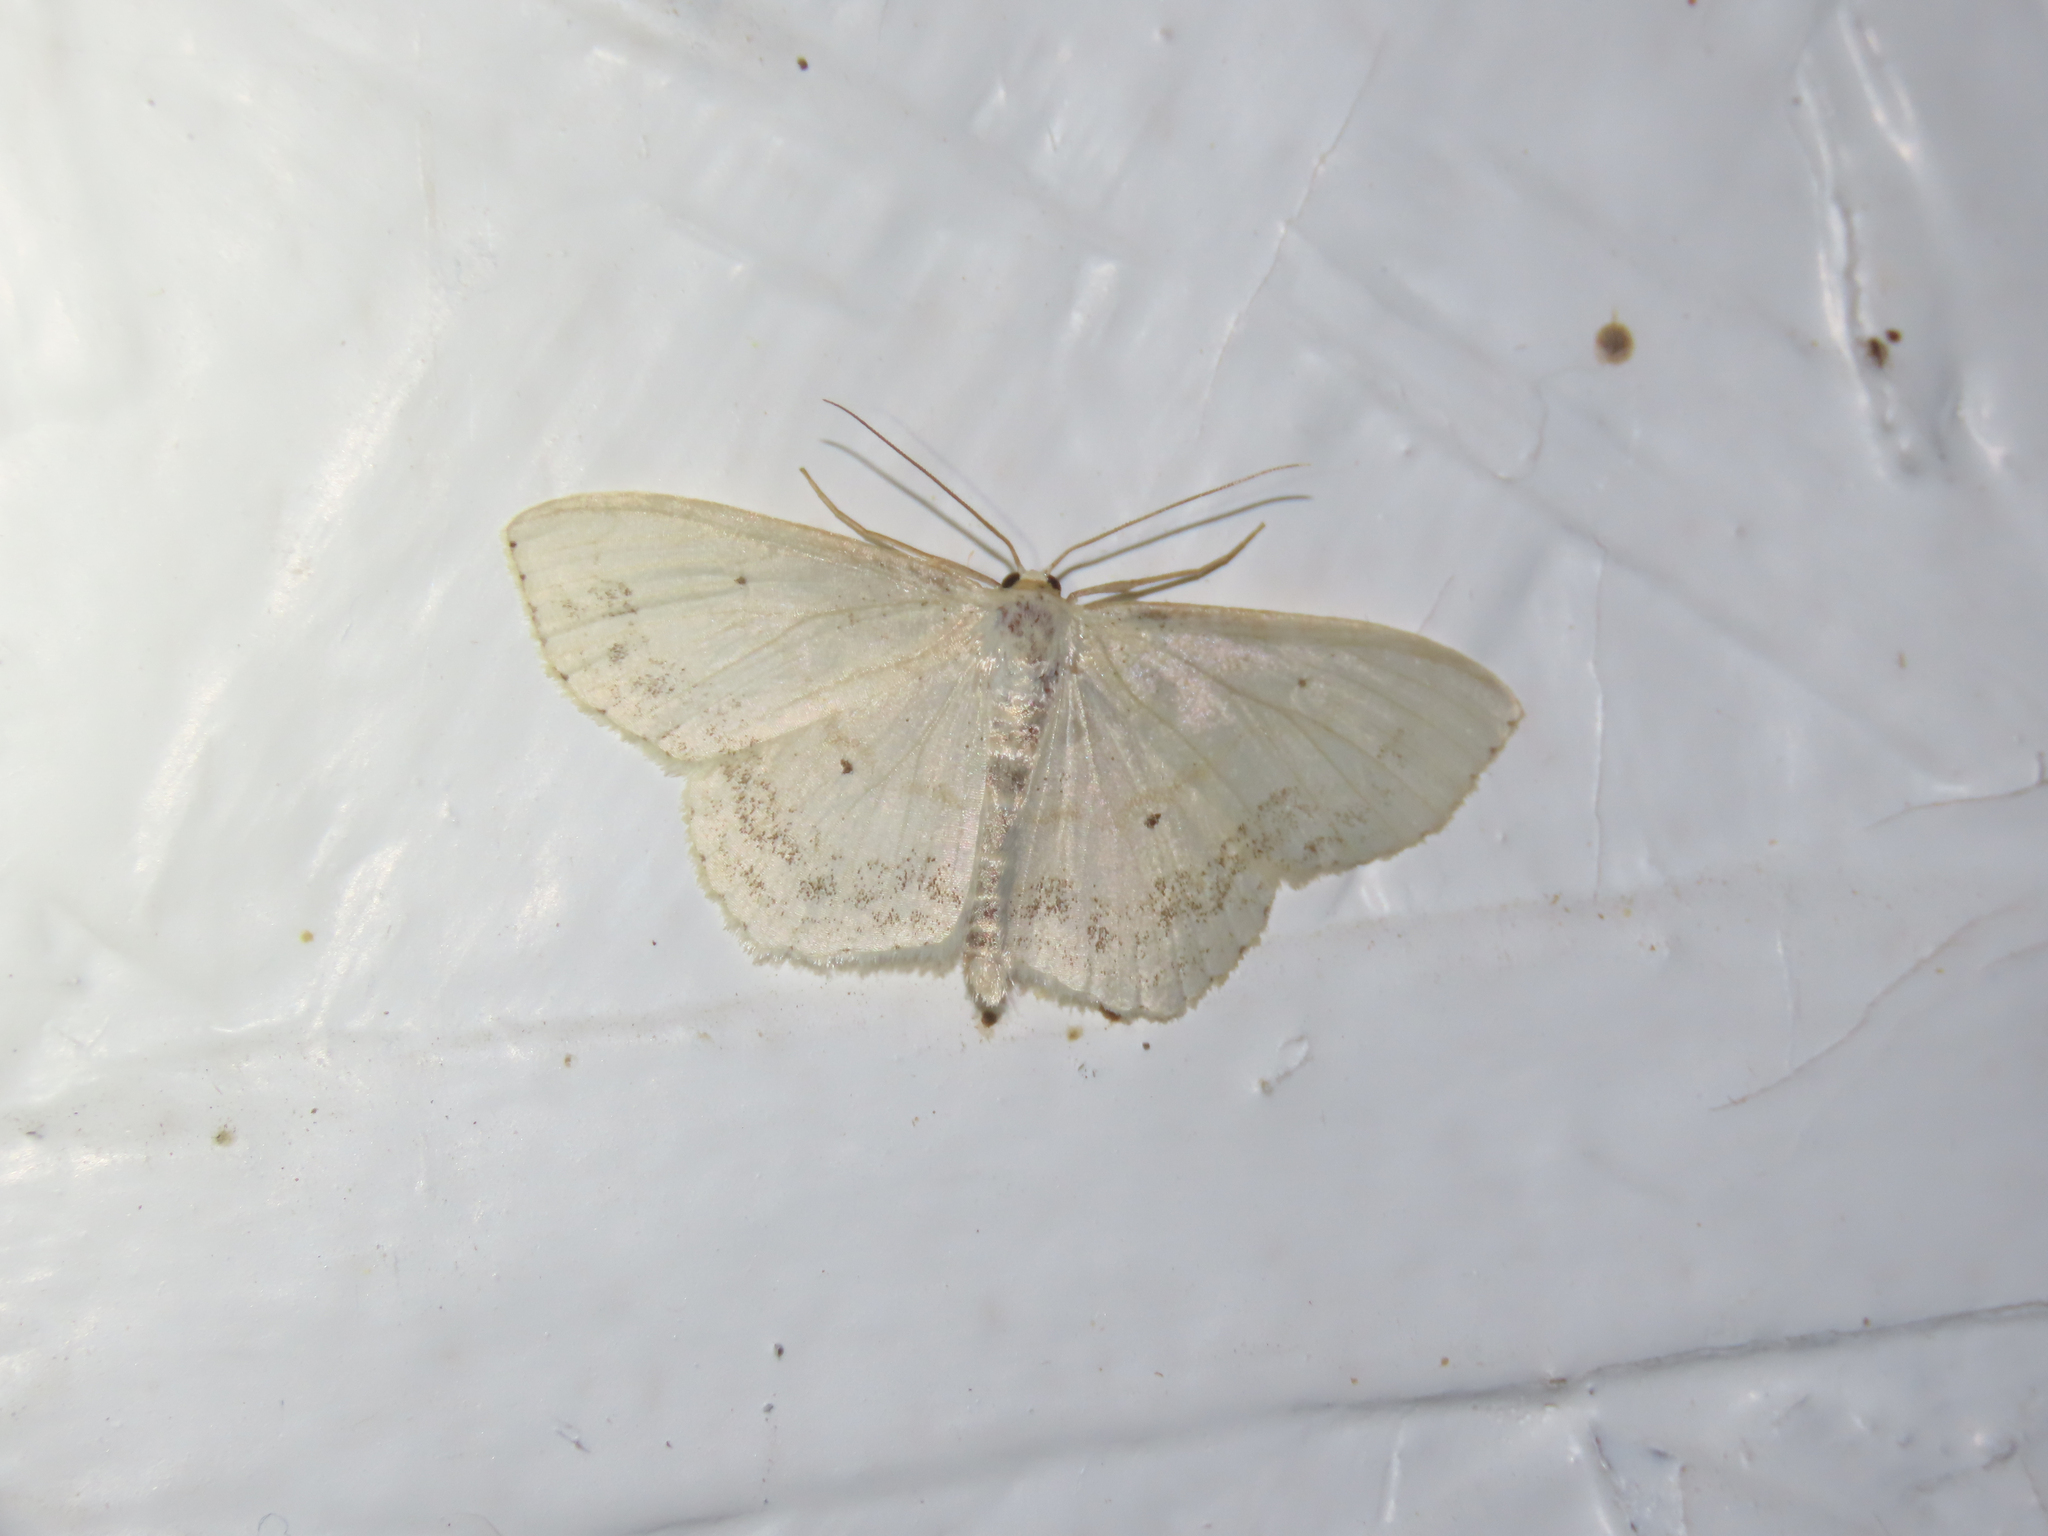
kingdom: Animalia
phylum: Arthropoda
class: Insecta
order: Lepidoptera
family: Geometridae
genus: Scopula
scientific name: Scopula limboundata
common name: Large lace border
